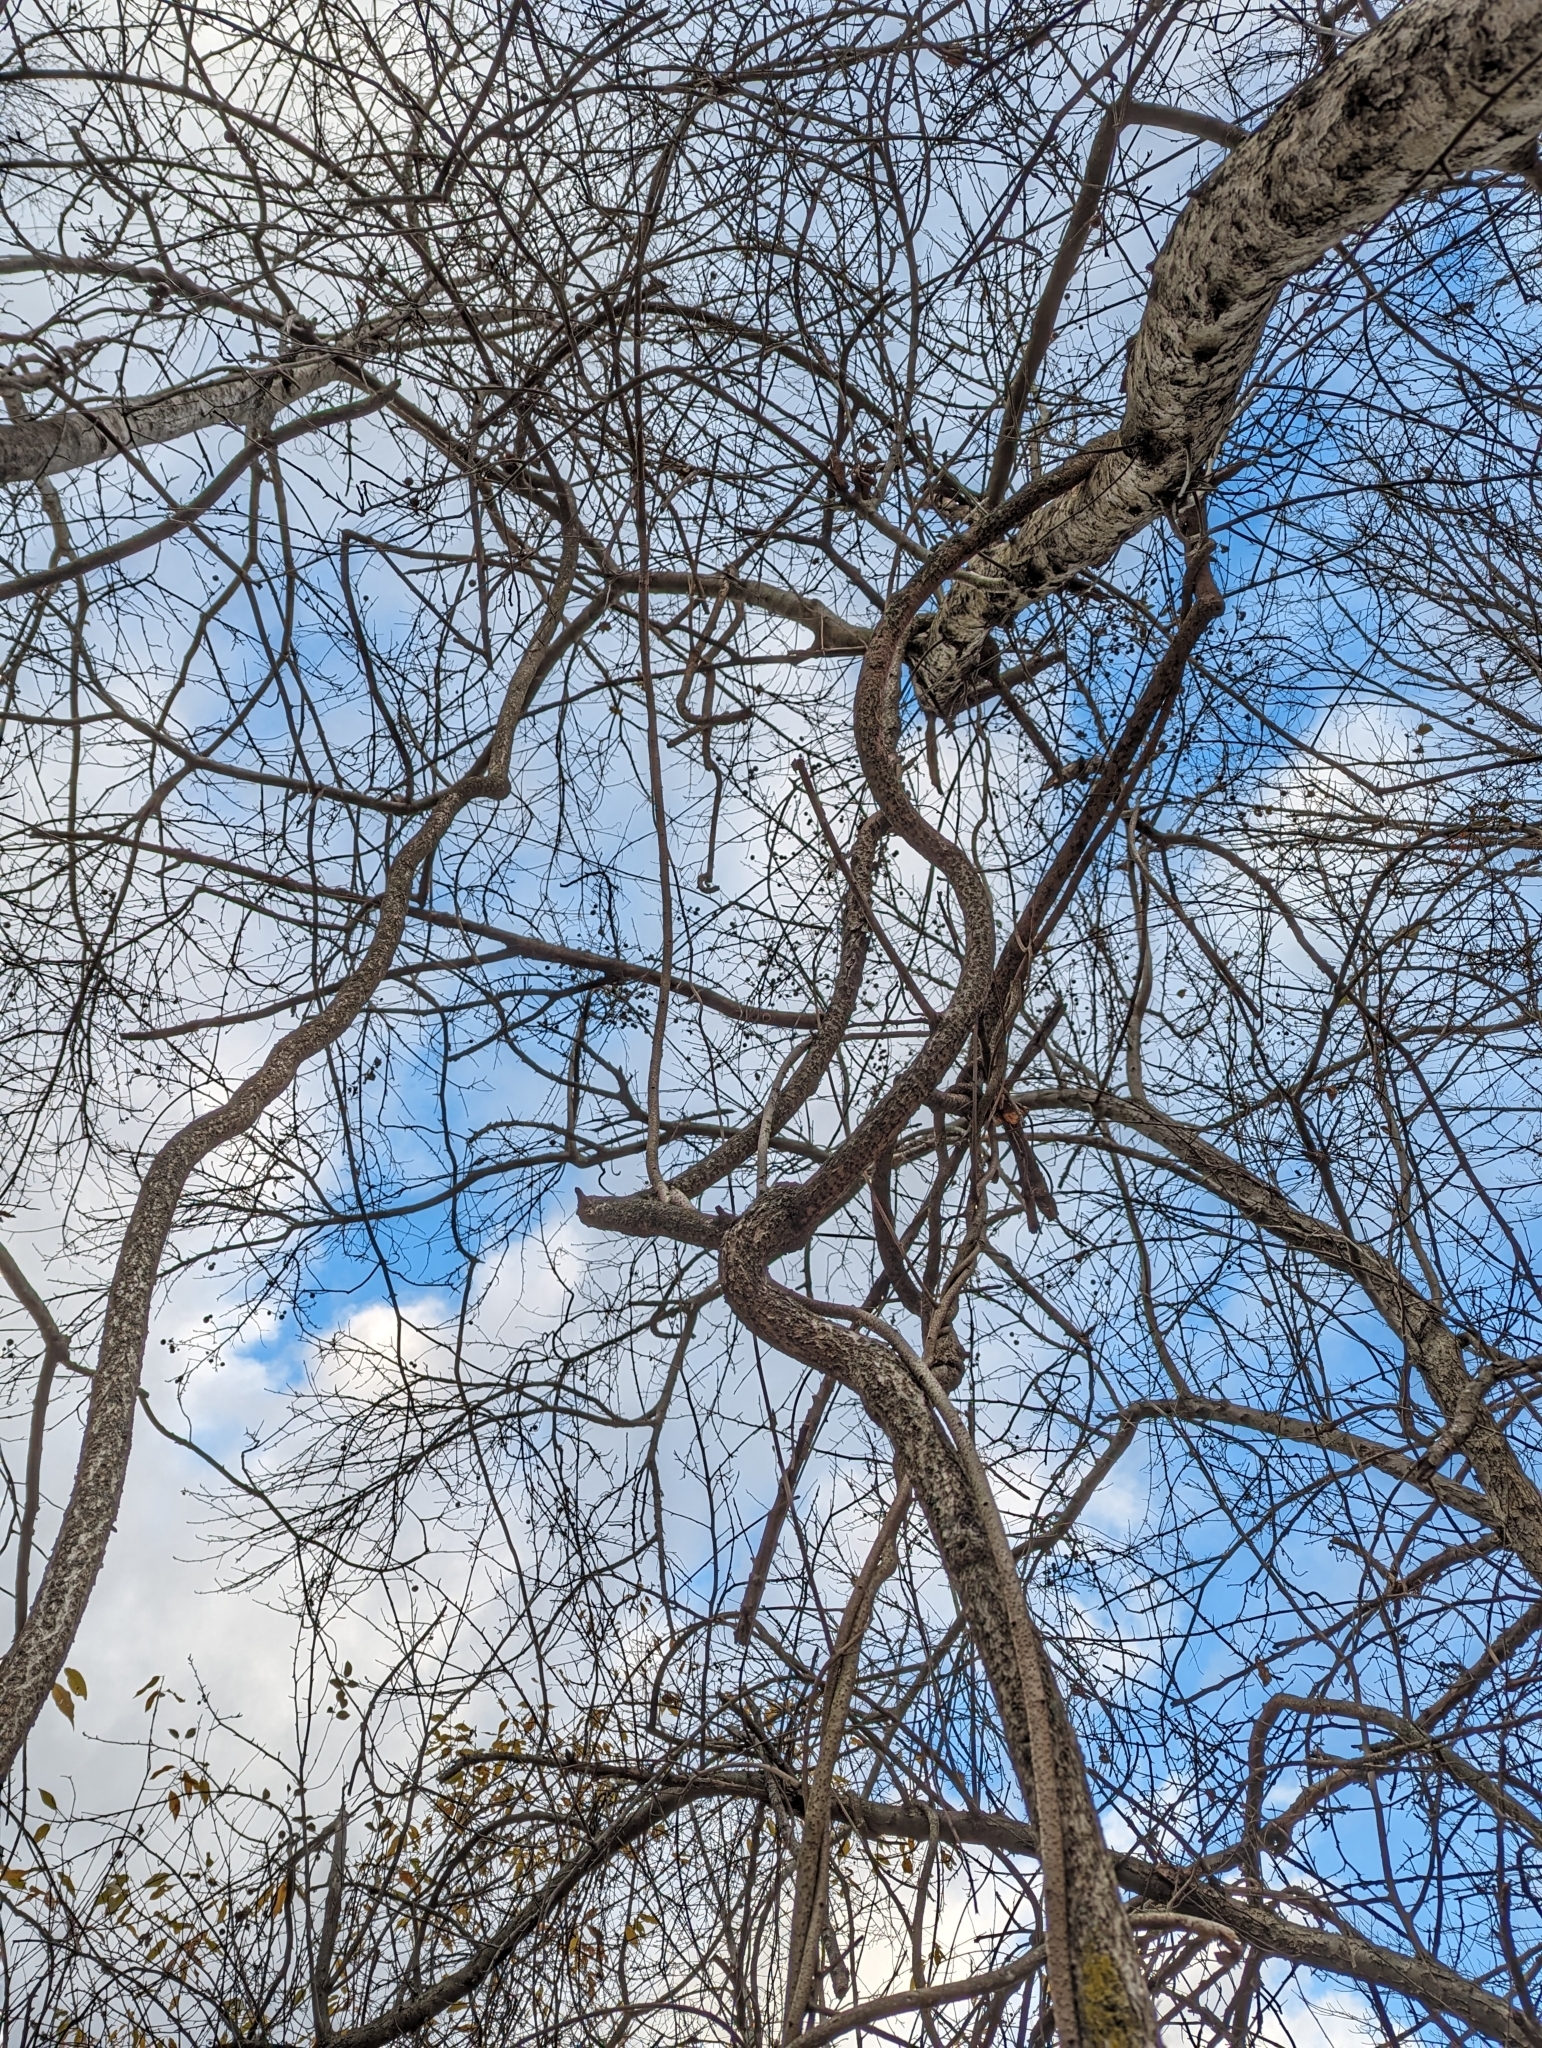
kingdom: Plantae
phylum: Tracheophyta
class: Magnoliopsida
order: Celastrales
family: Celastraceae
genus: Celastrus
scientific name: Celastrus orbiculatus
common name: Oriental bittersweet
